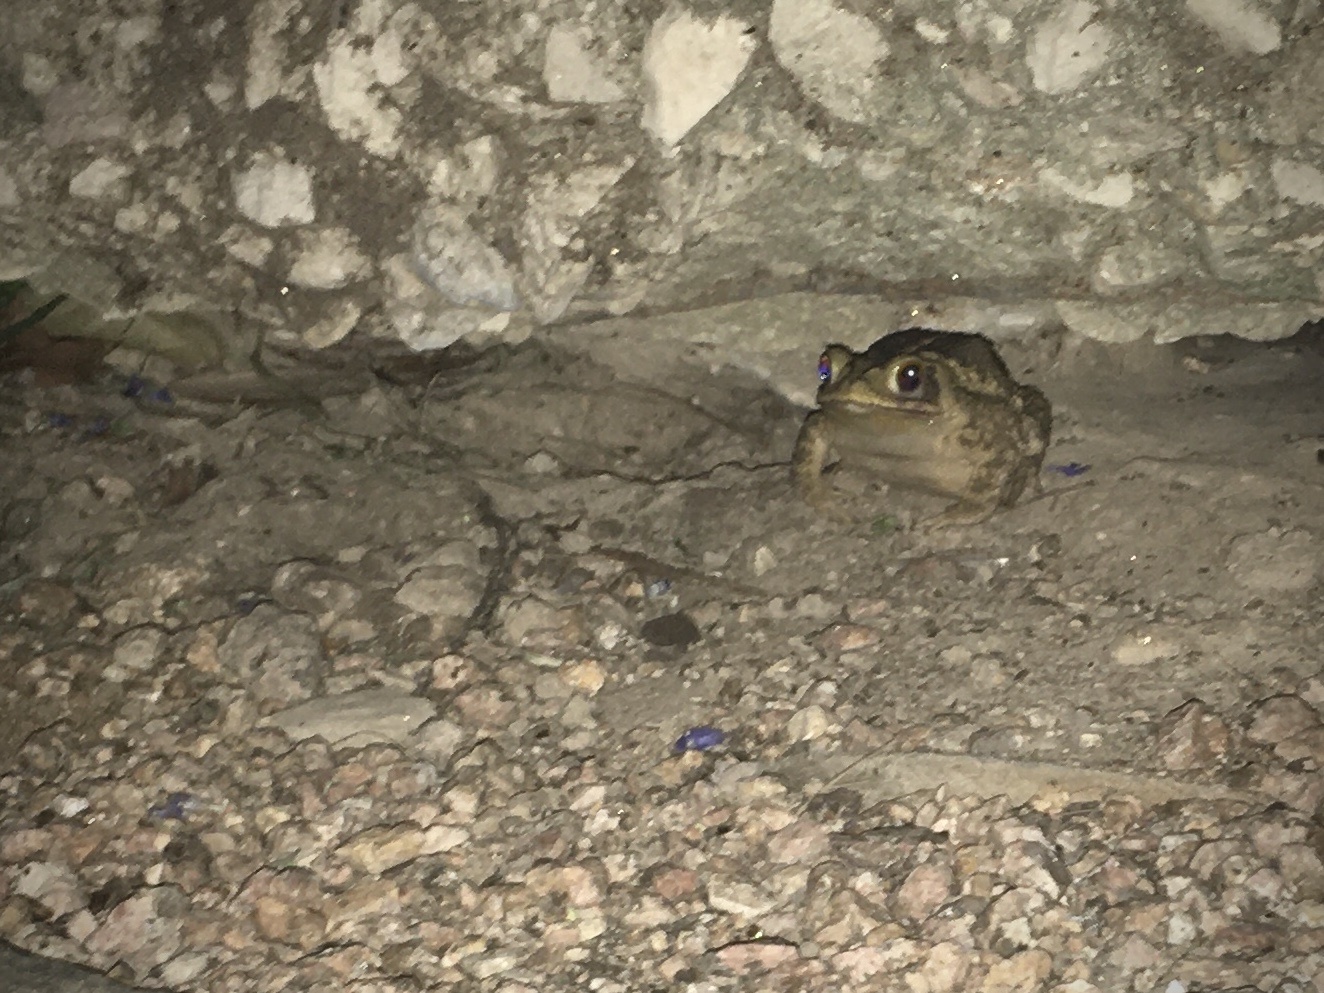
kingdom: Animalia
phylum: Chordata
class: Amphibia
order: Anura
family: Bufonidae
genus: Incilius
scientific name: Incilius nebulifer
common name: Gulf coast toad
